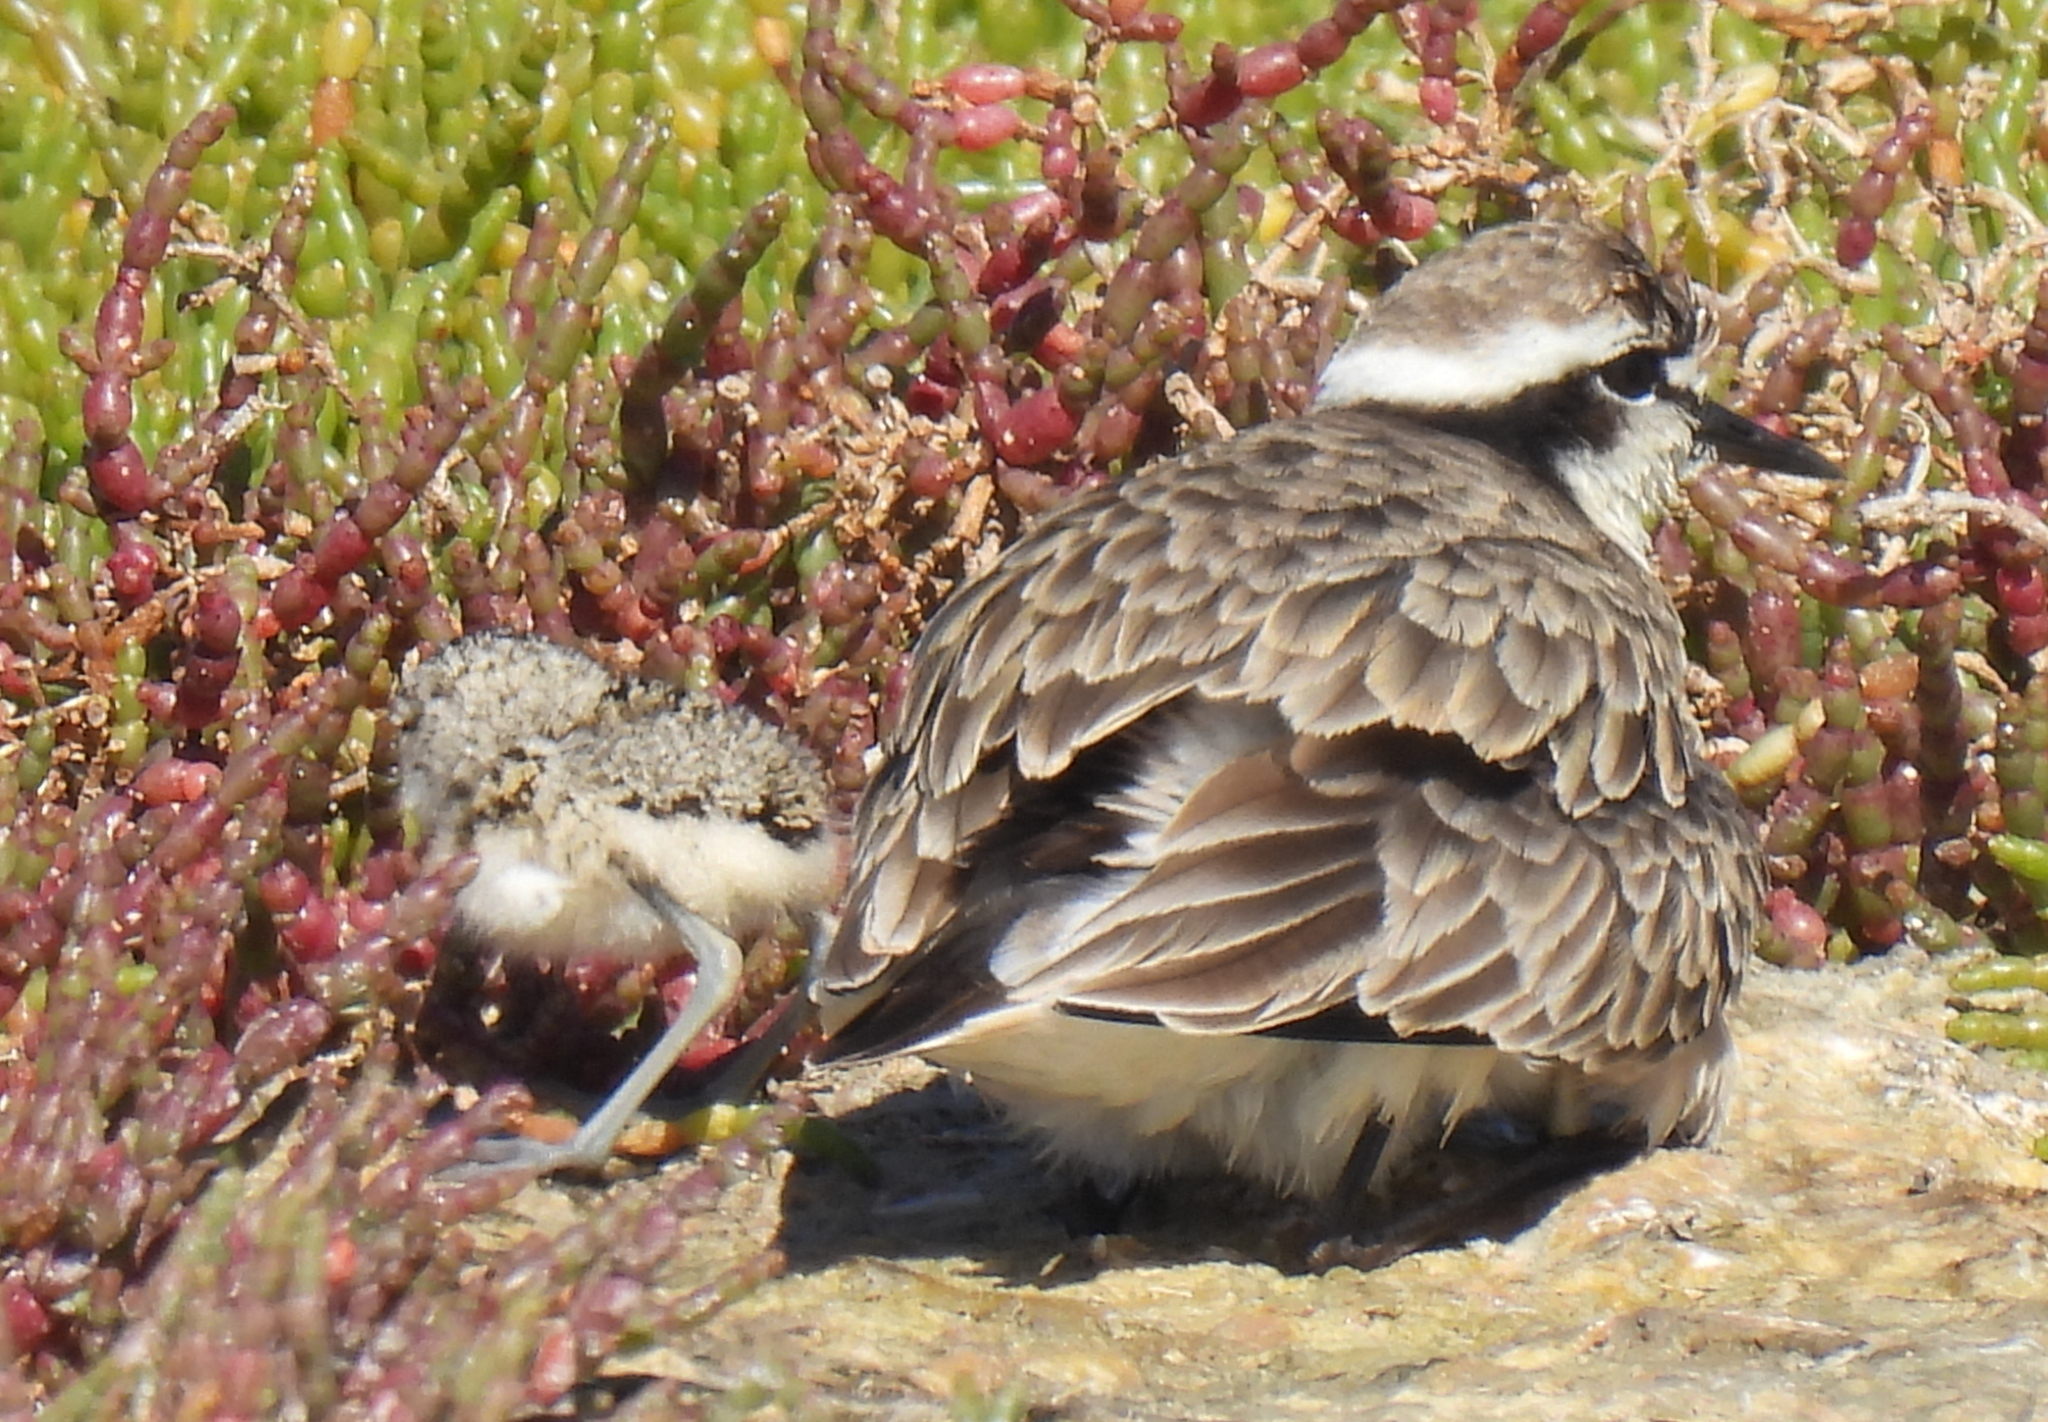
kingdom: Animalia
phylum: Chordata
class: Aves
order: Charadriiformes
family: Charadriidae
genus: Anarhynchus
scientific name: Anarhynchus
